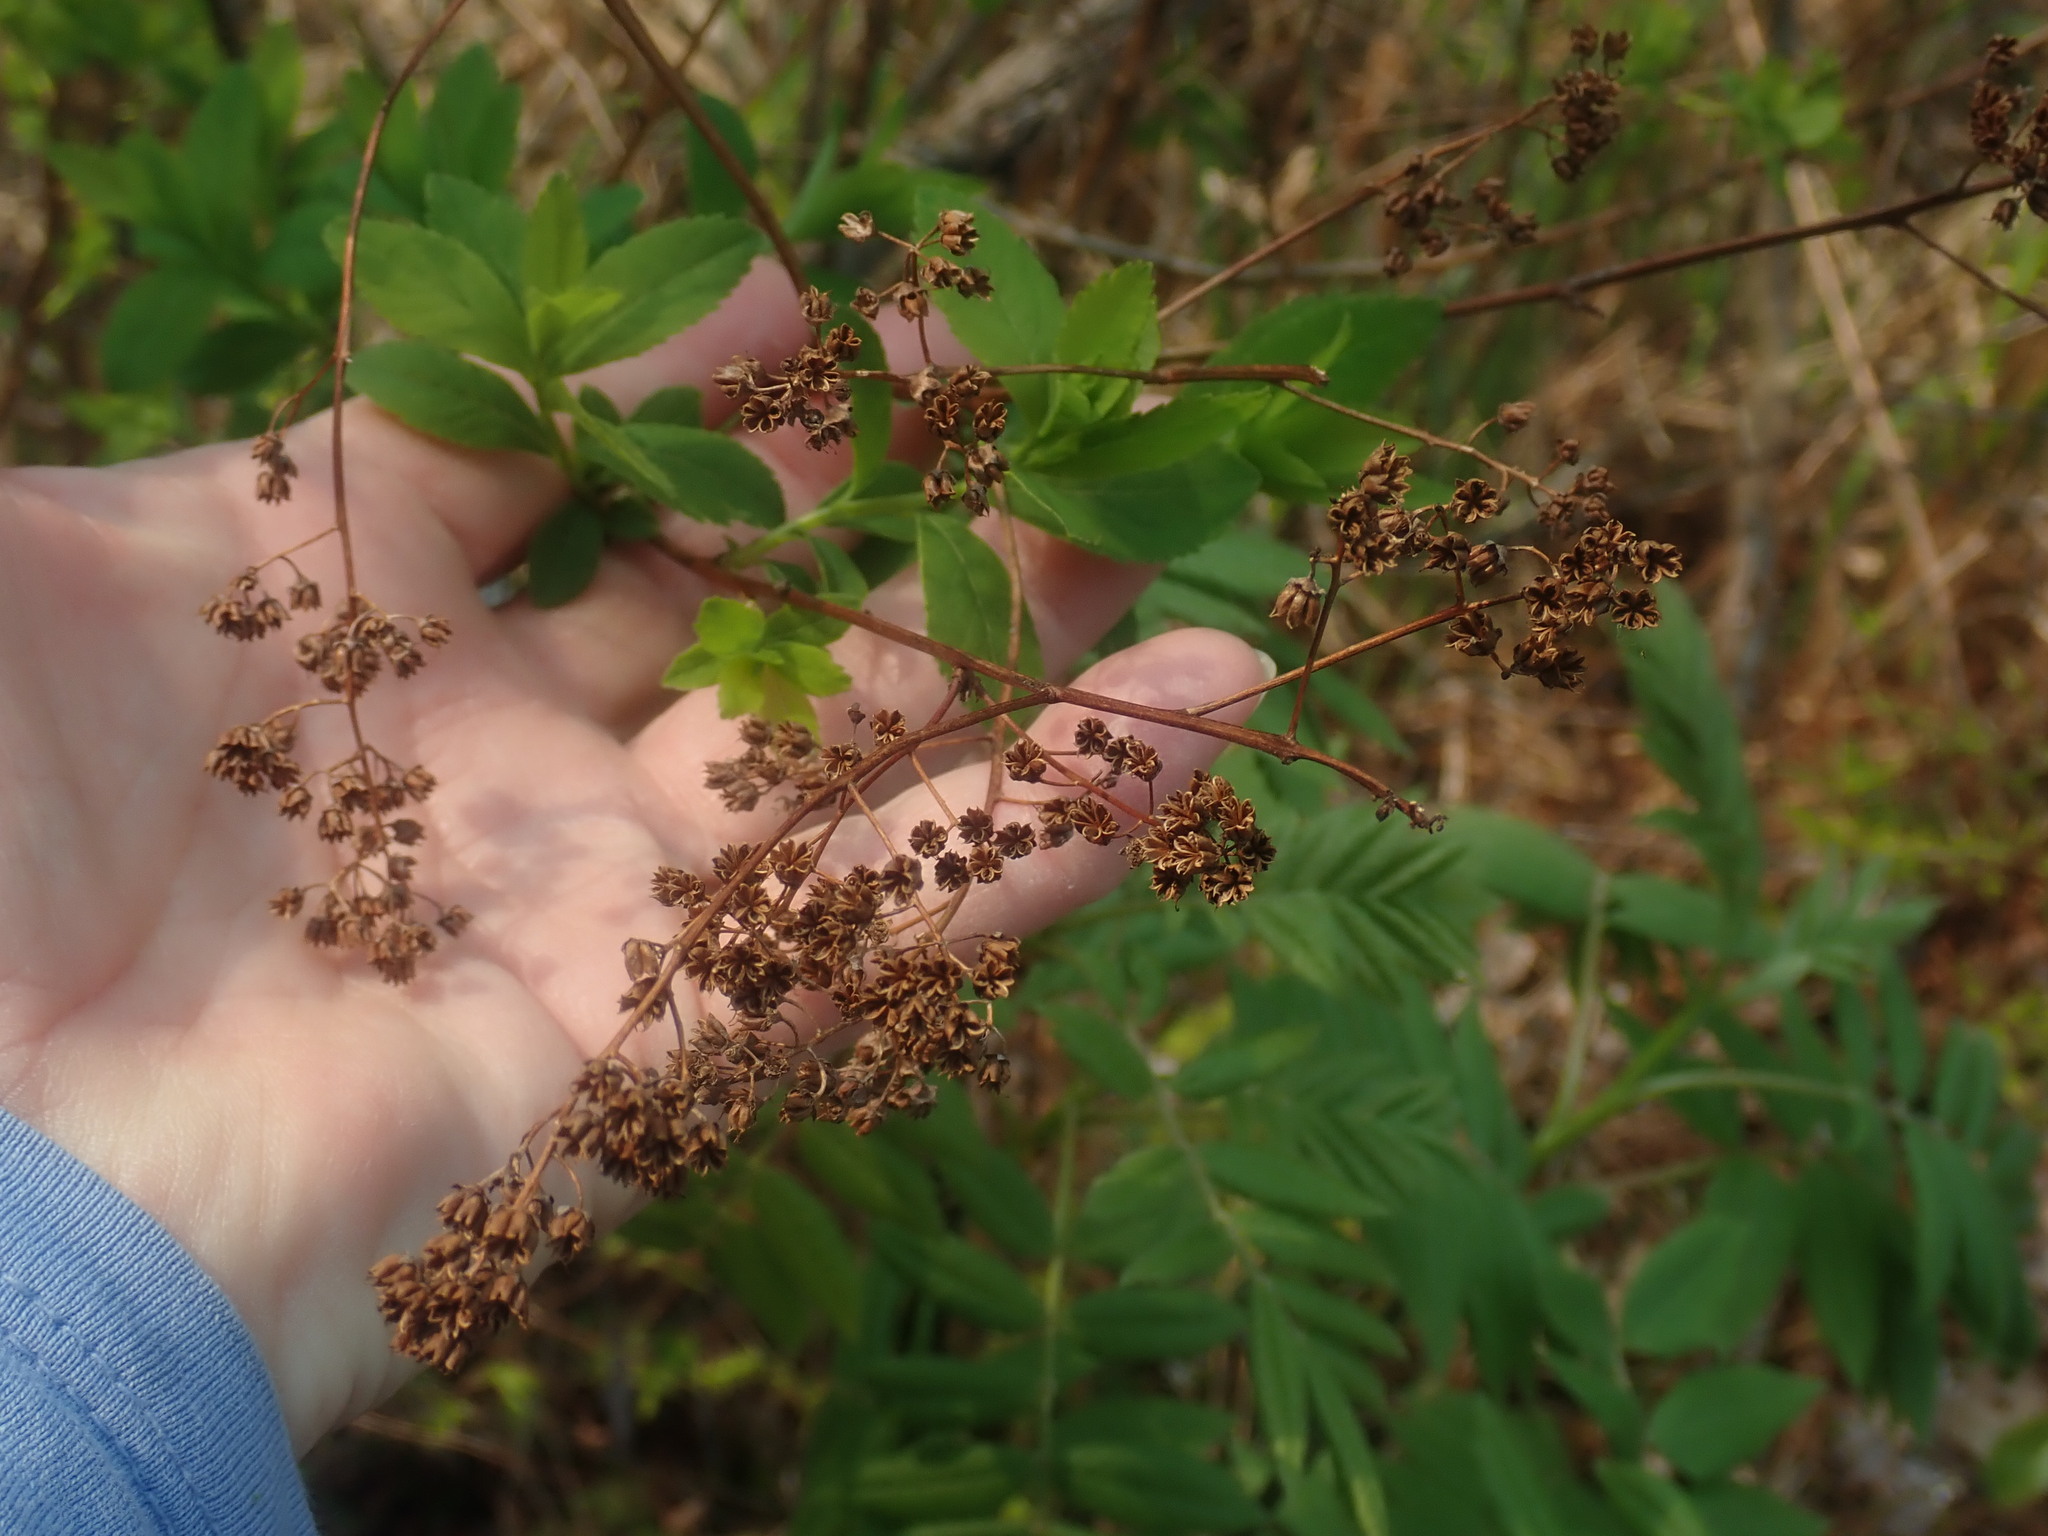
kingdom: Plantae
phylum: Tracheophyta
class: Magnoliopsida
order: Rosales
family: Rosaceae
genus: Spiraea
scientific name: Spiraea alba
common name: Pale bridewort
